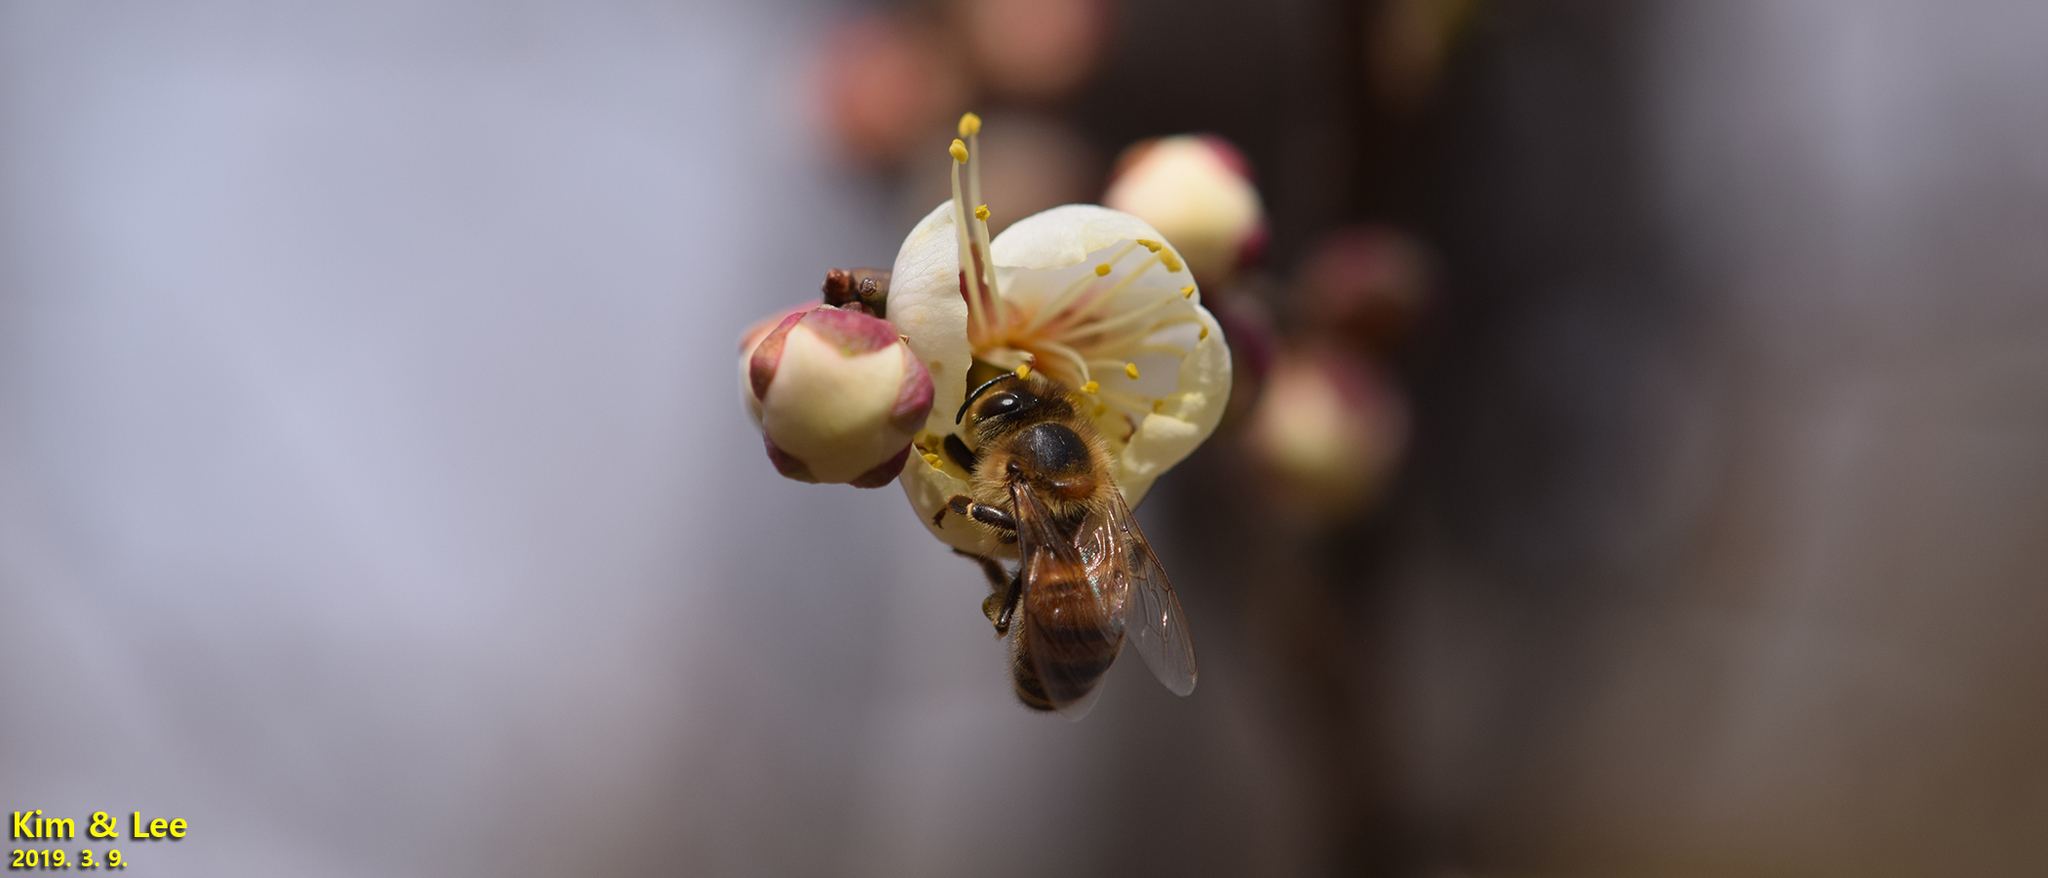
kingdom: Animalia
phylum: Arthropoda
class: Insecta
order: Hymenoptera
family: Apidae
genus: Apis
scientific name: Apis mellifera
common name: Honey bee
